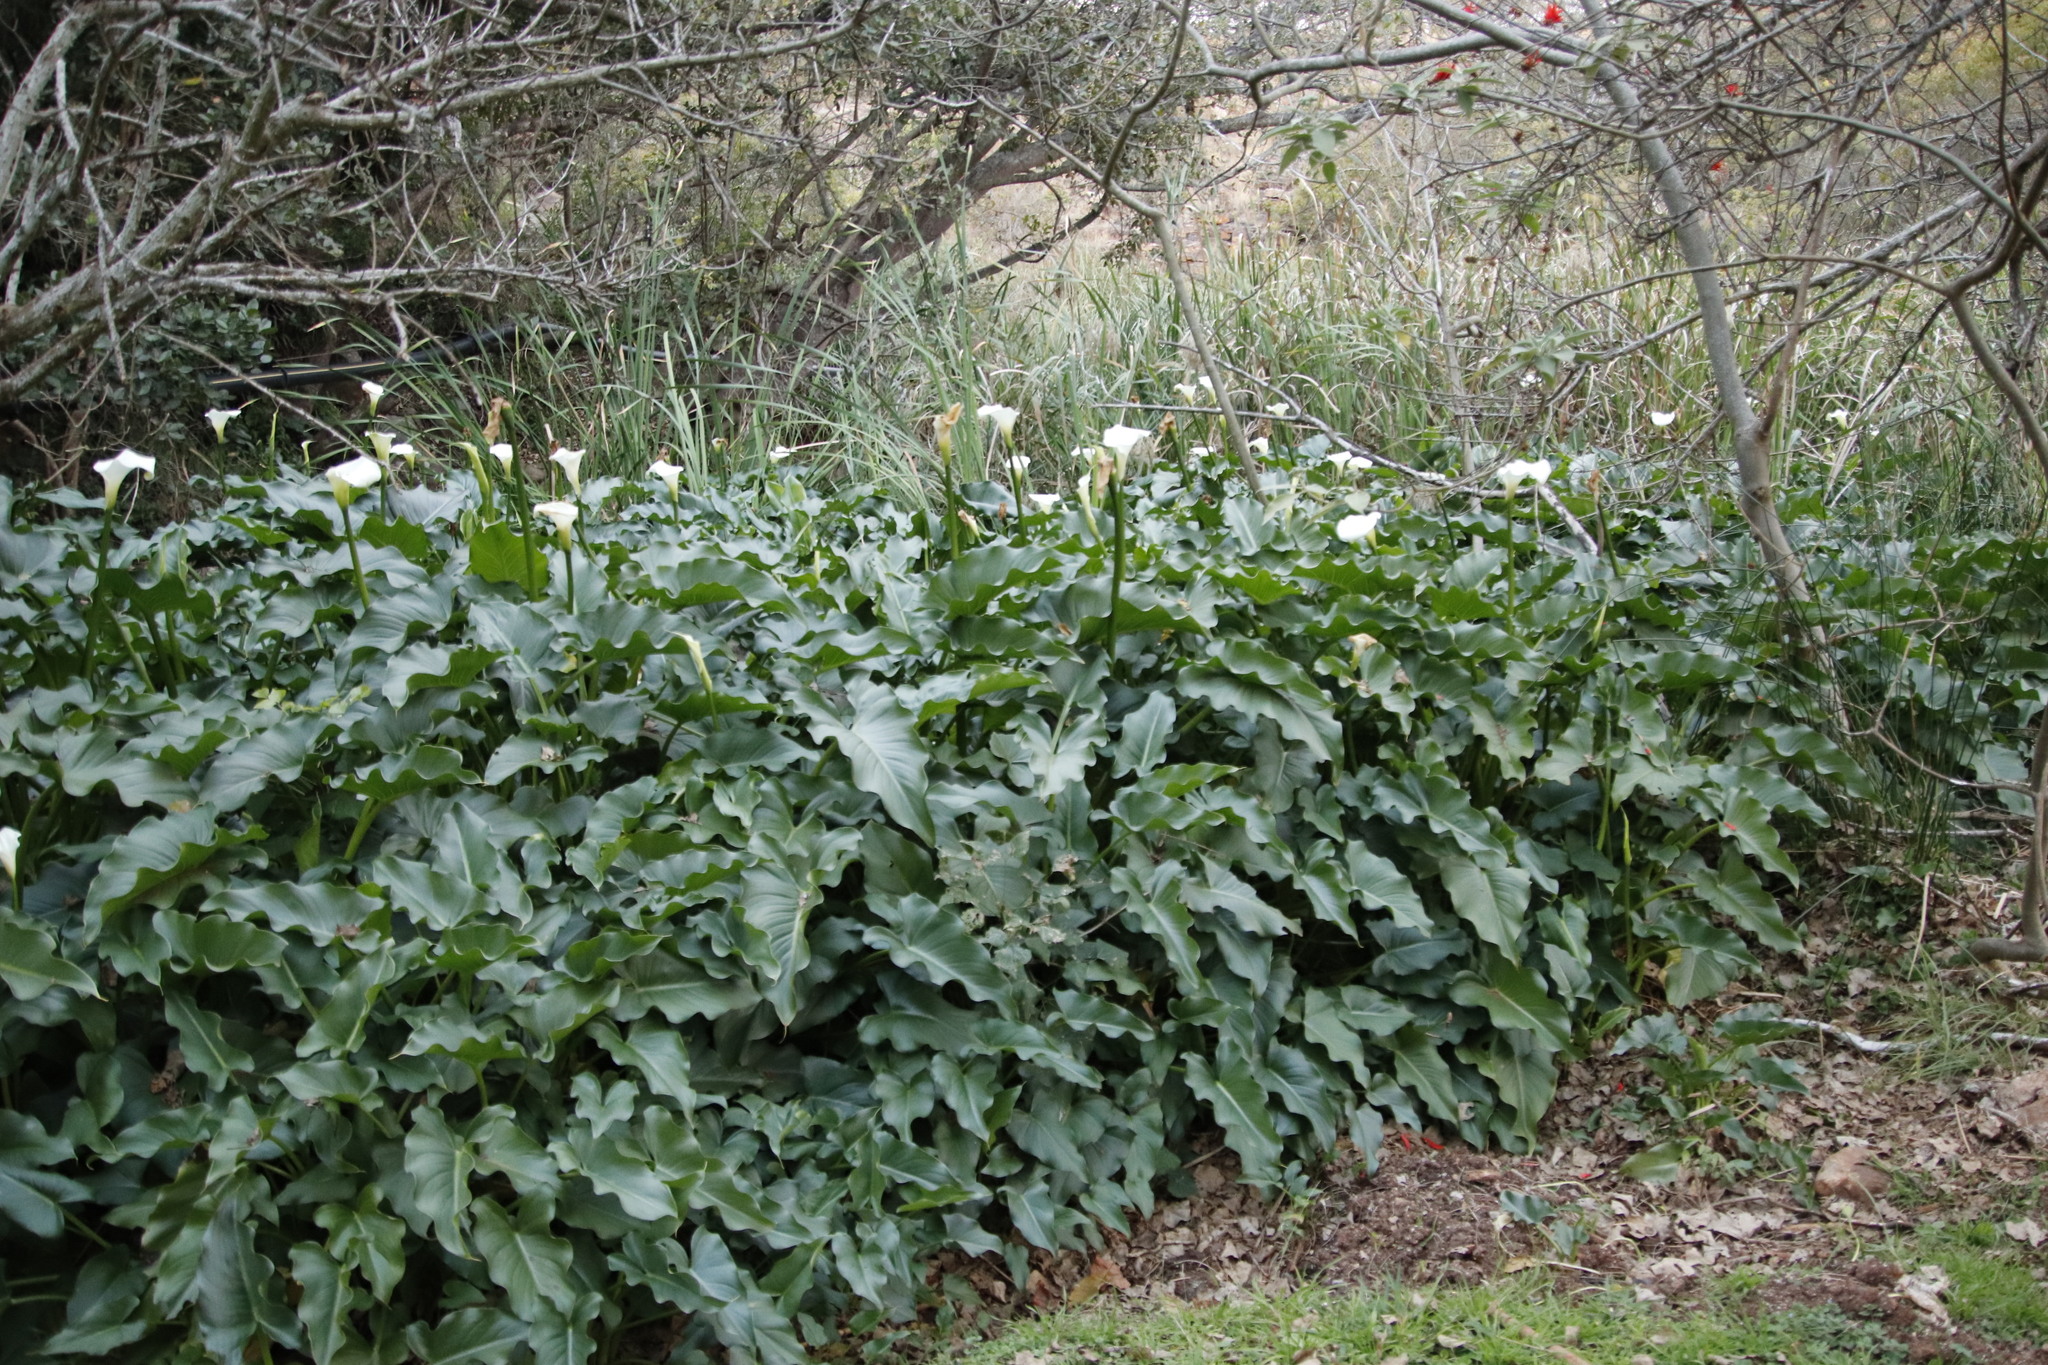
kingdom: Plantae
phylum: Tracheophyta
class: Liliopsida
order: Alismatales
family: Araceae
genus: Zantedeschia
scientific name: Zantedeschia aethiopica
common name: Altar-lily
